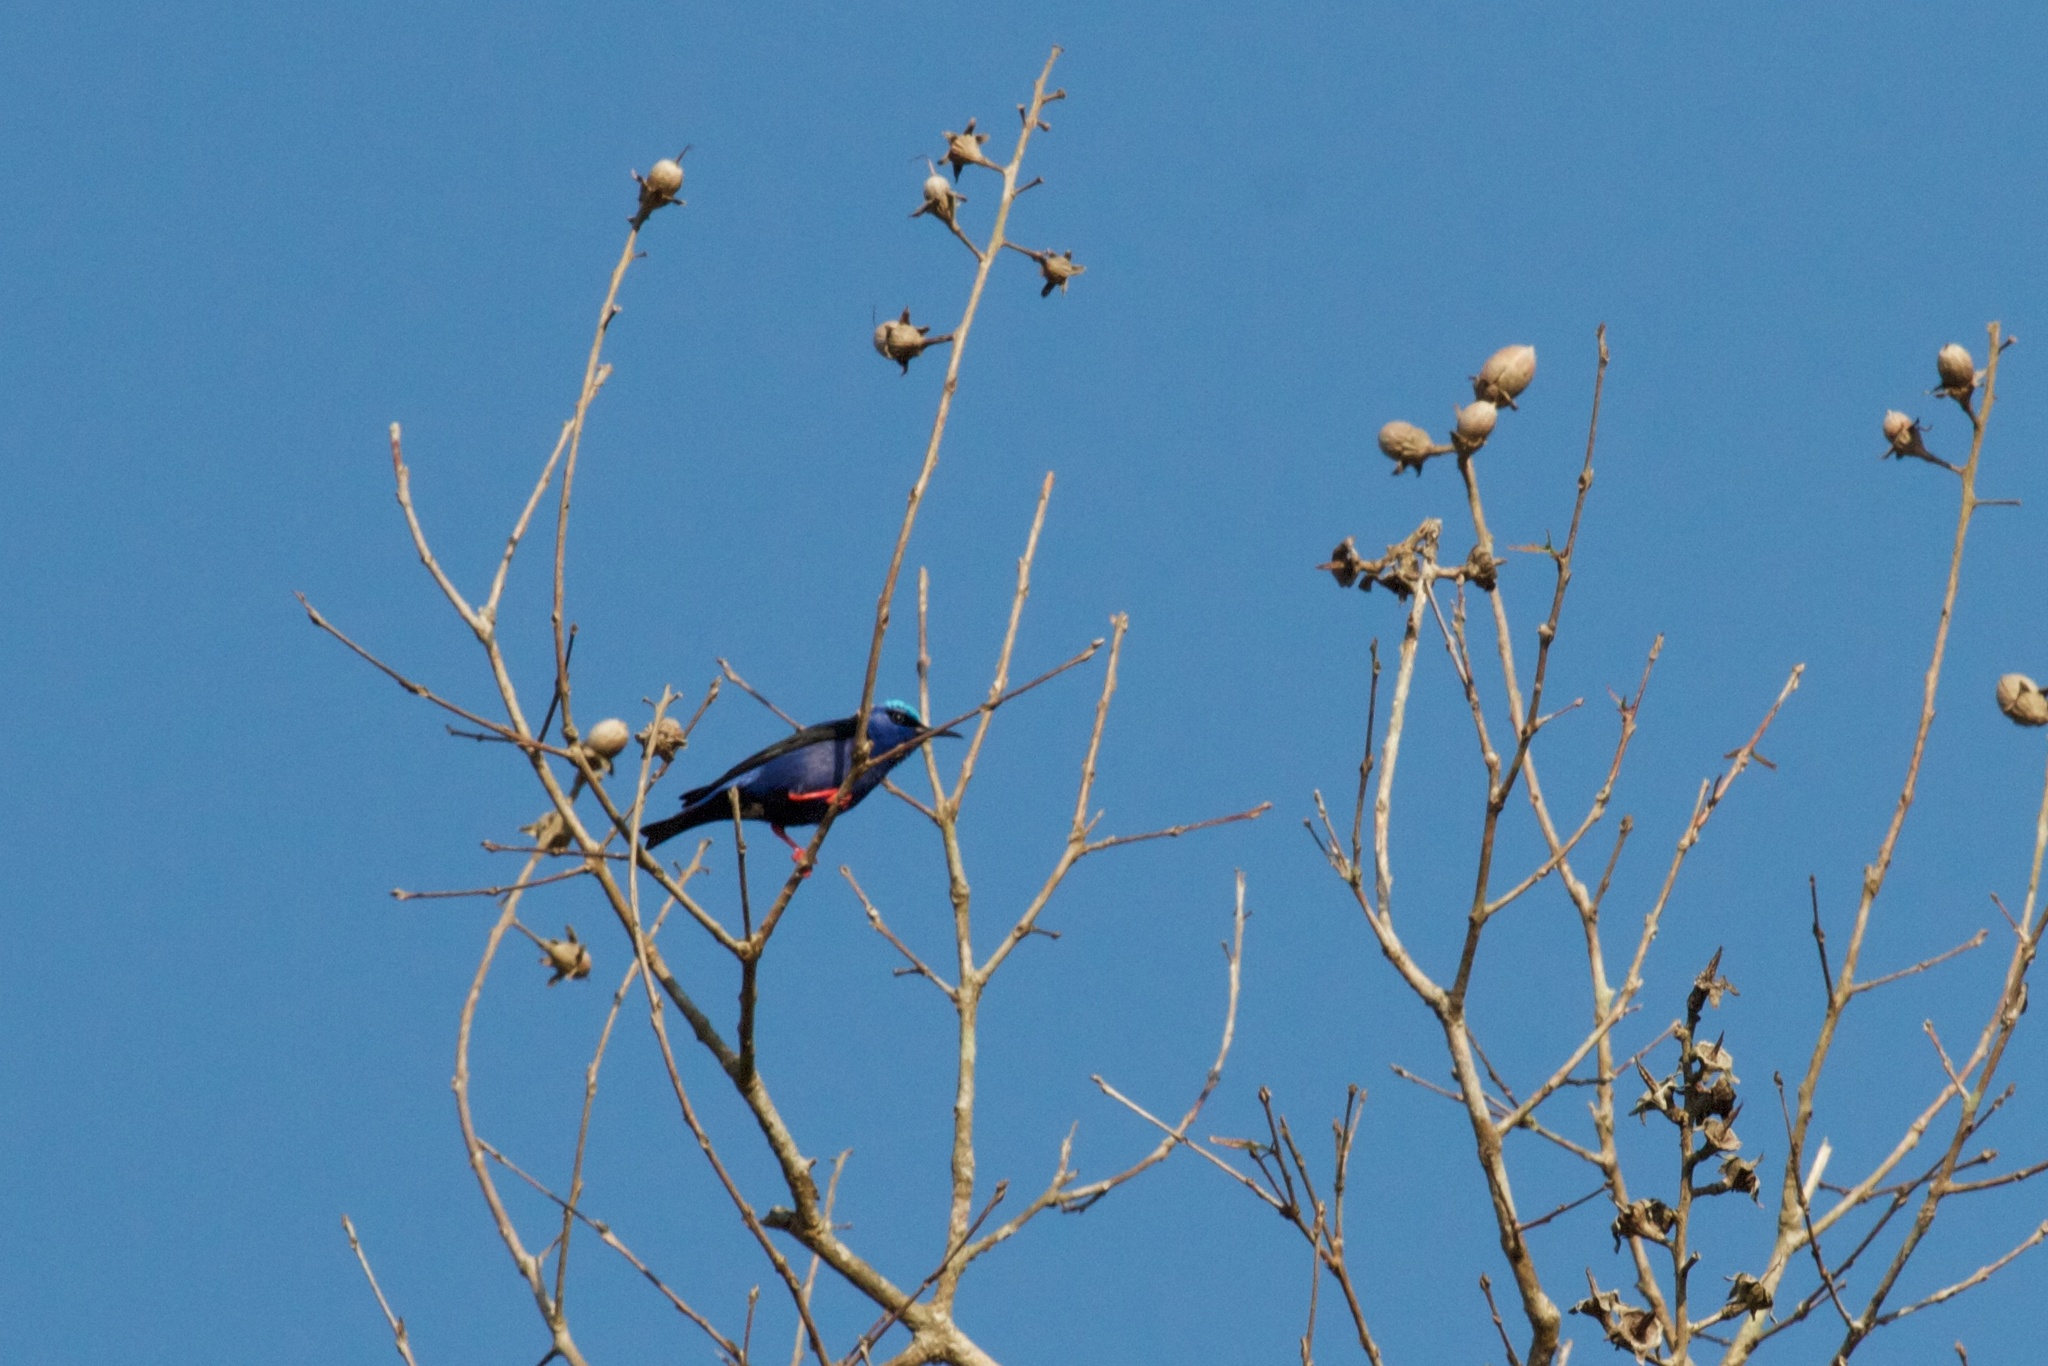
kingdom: Animalia
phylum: Chordata
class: Aves
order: Passeriformes
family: Thraupidae
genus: Cyanerpes
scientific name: Cyanerpes cyaneus
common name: Red-legged honeycreeper
